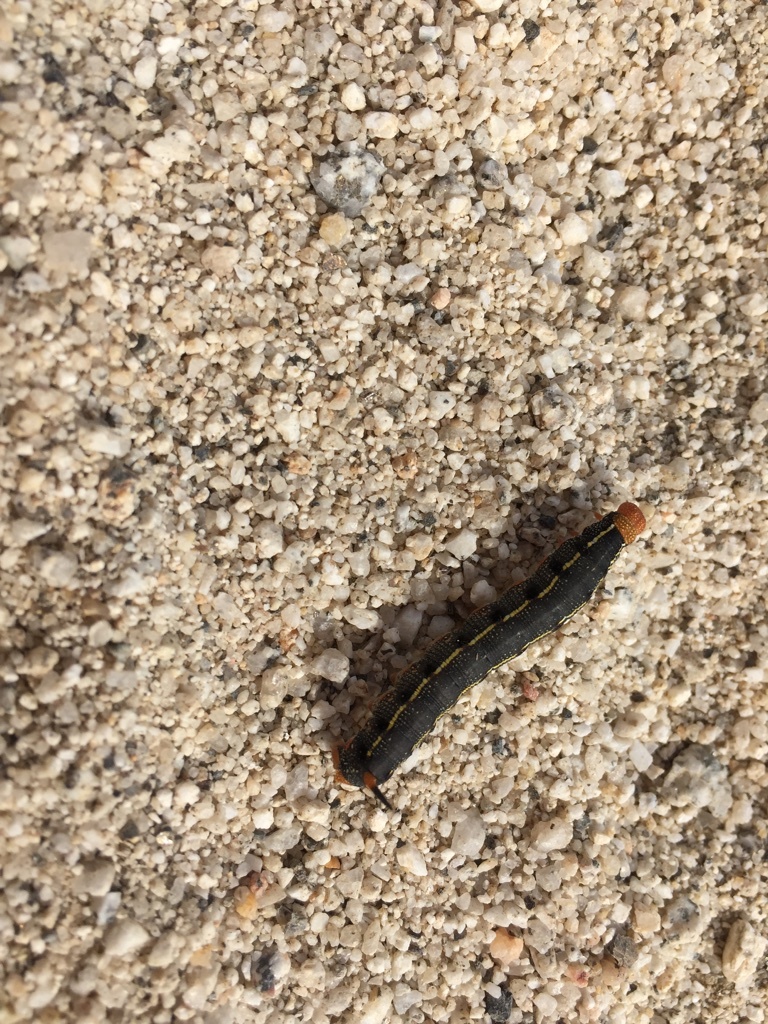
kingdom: Animalia
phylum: Arthropoda
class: Insecta
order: Lepidoptera
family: Sphingidae
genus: Hyles
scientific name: Hyles lineata
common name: White-lined sphinx
